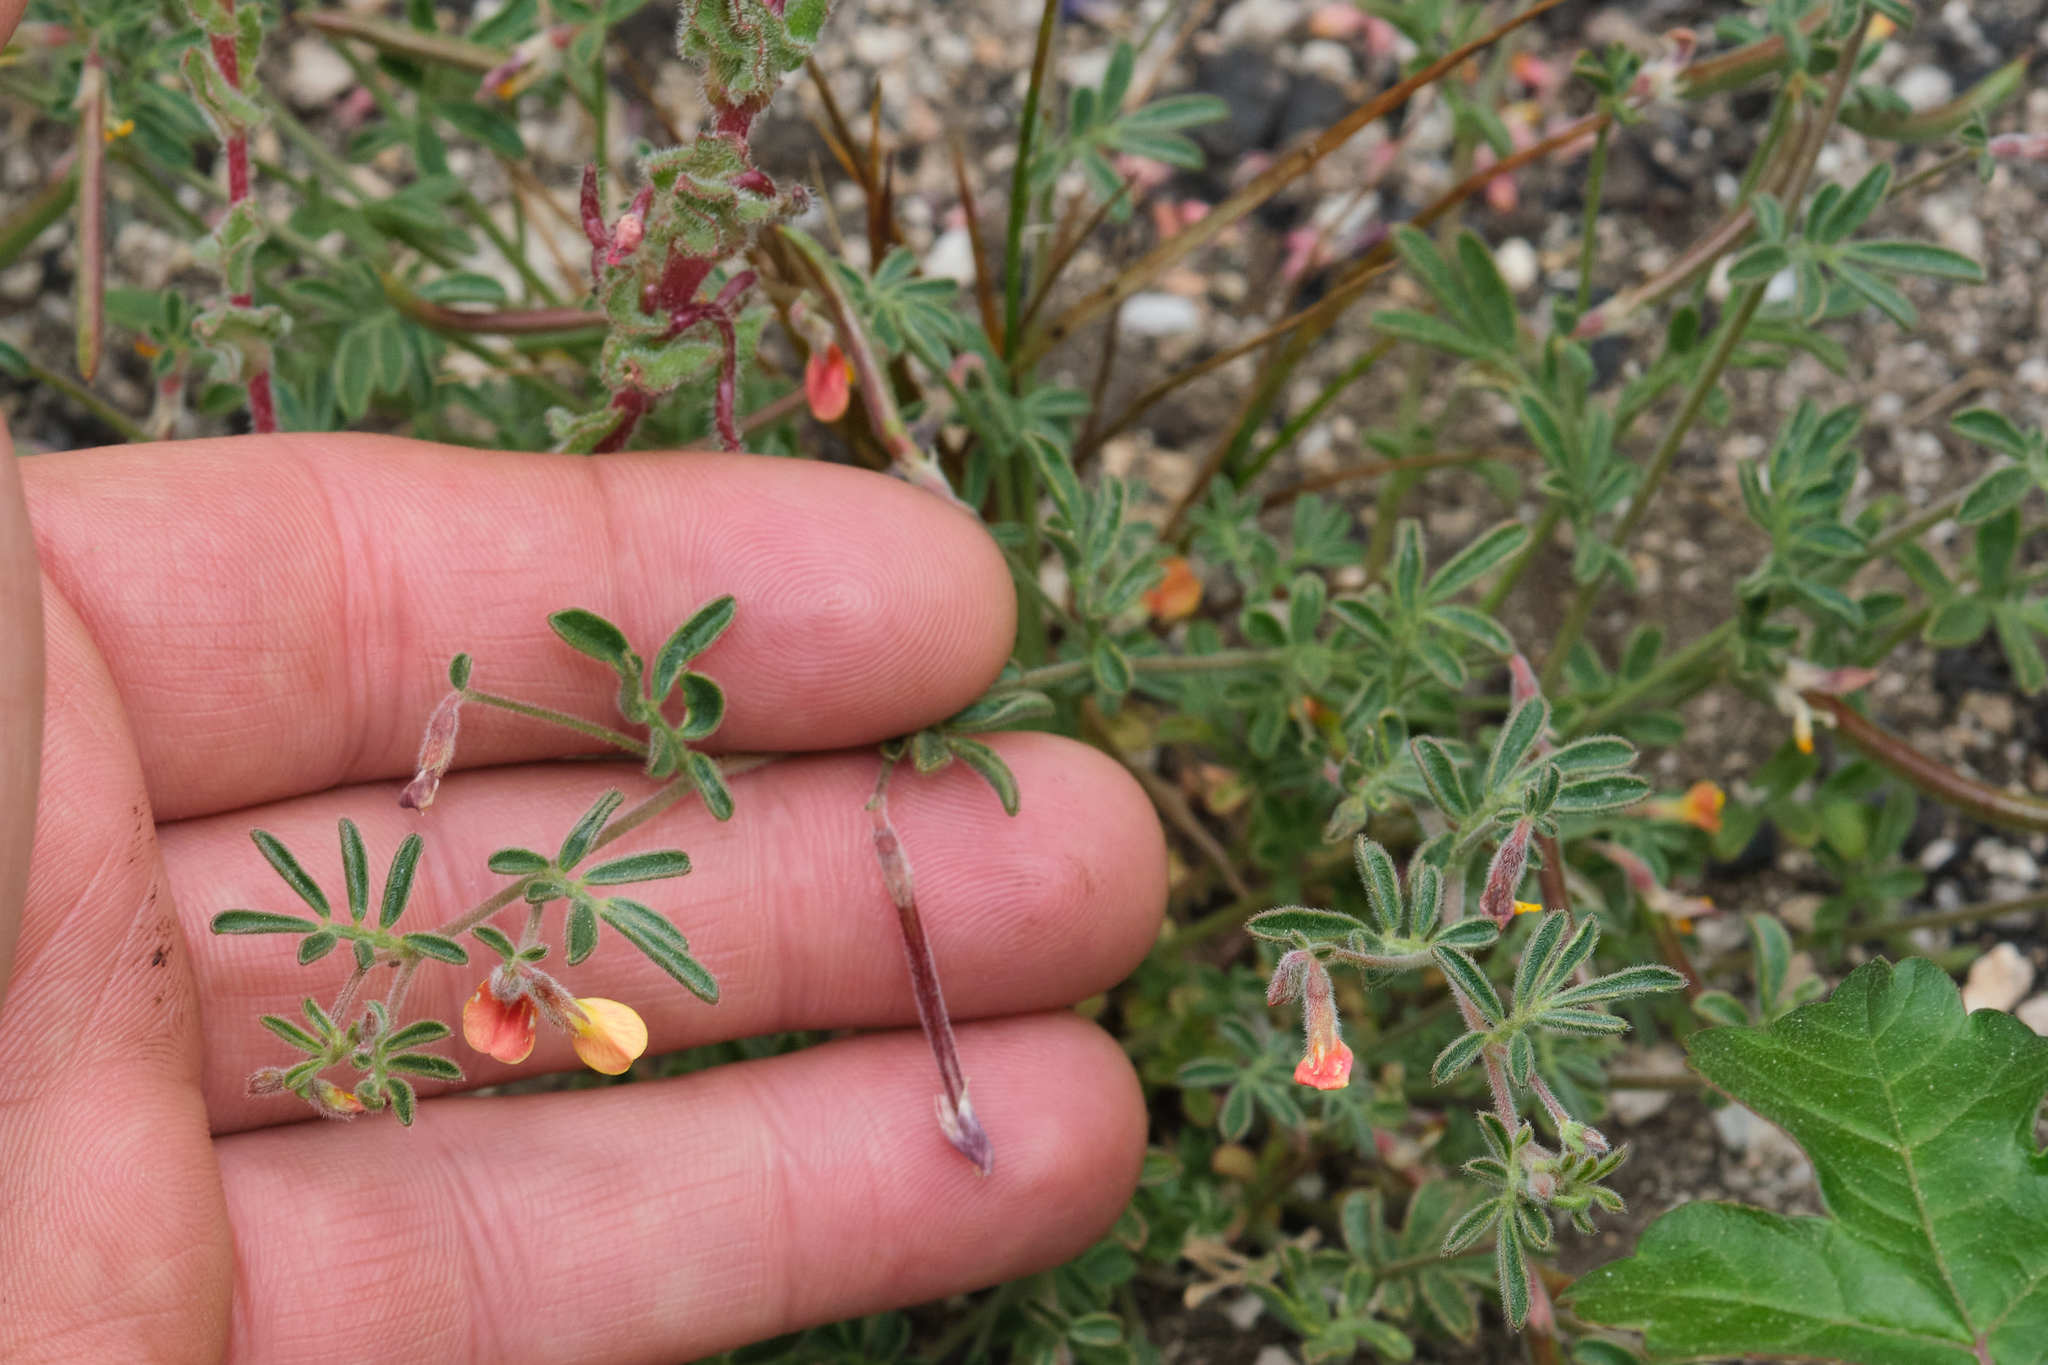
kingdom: Plantae
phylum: Tracheophyta
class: Magnoliopsida
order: Fabales
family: Fabaceae
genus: Acmispon
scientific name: Acmispon strigosus
